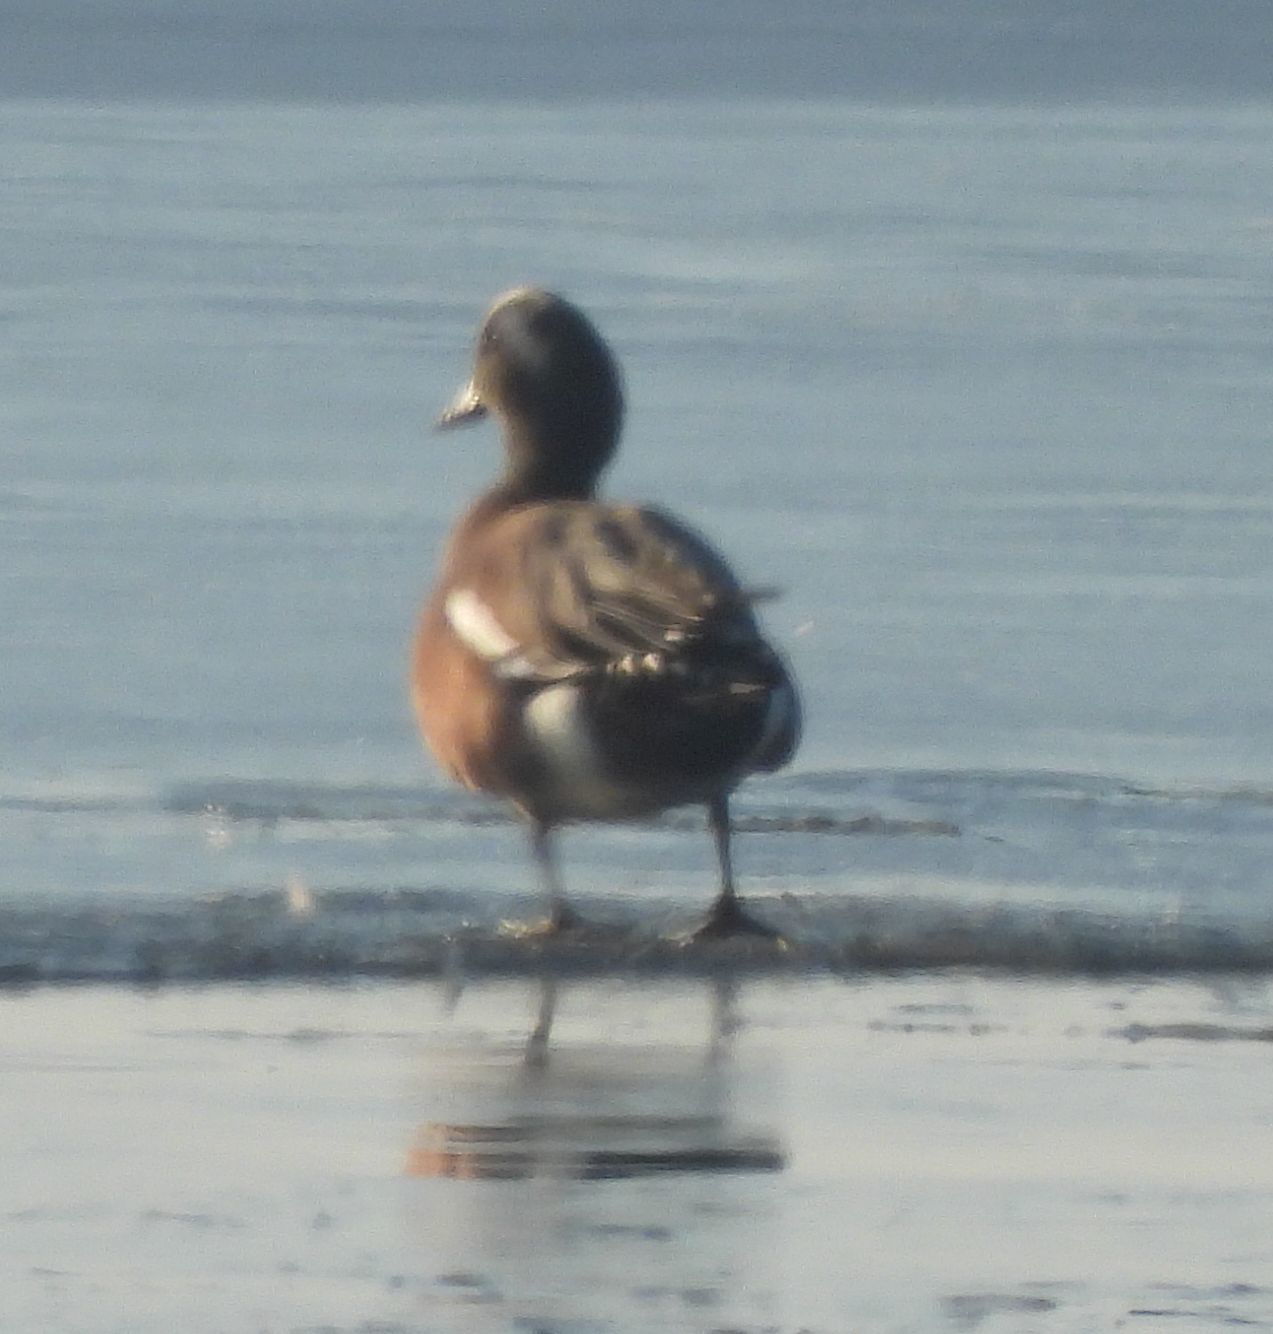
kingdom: Animalia
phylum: Chordata
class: Aves
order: Anseriformes
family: Anatidae
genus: Mareca
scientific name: Mareca americana
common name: American wigeon
